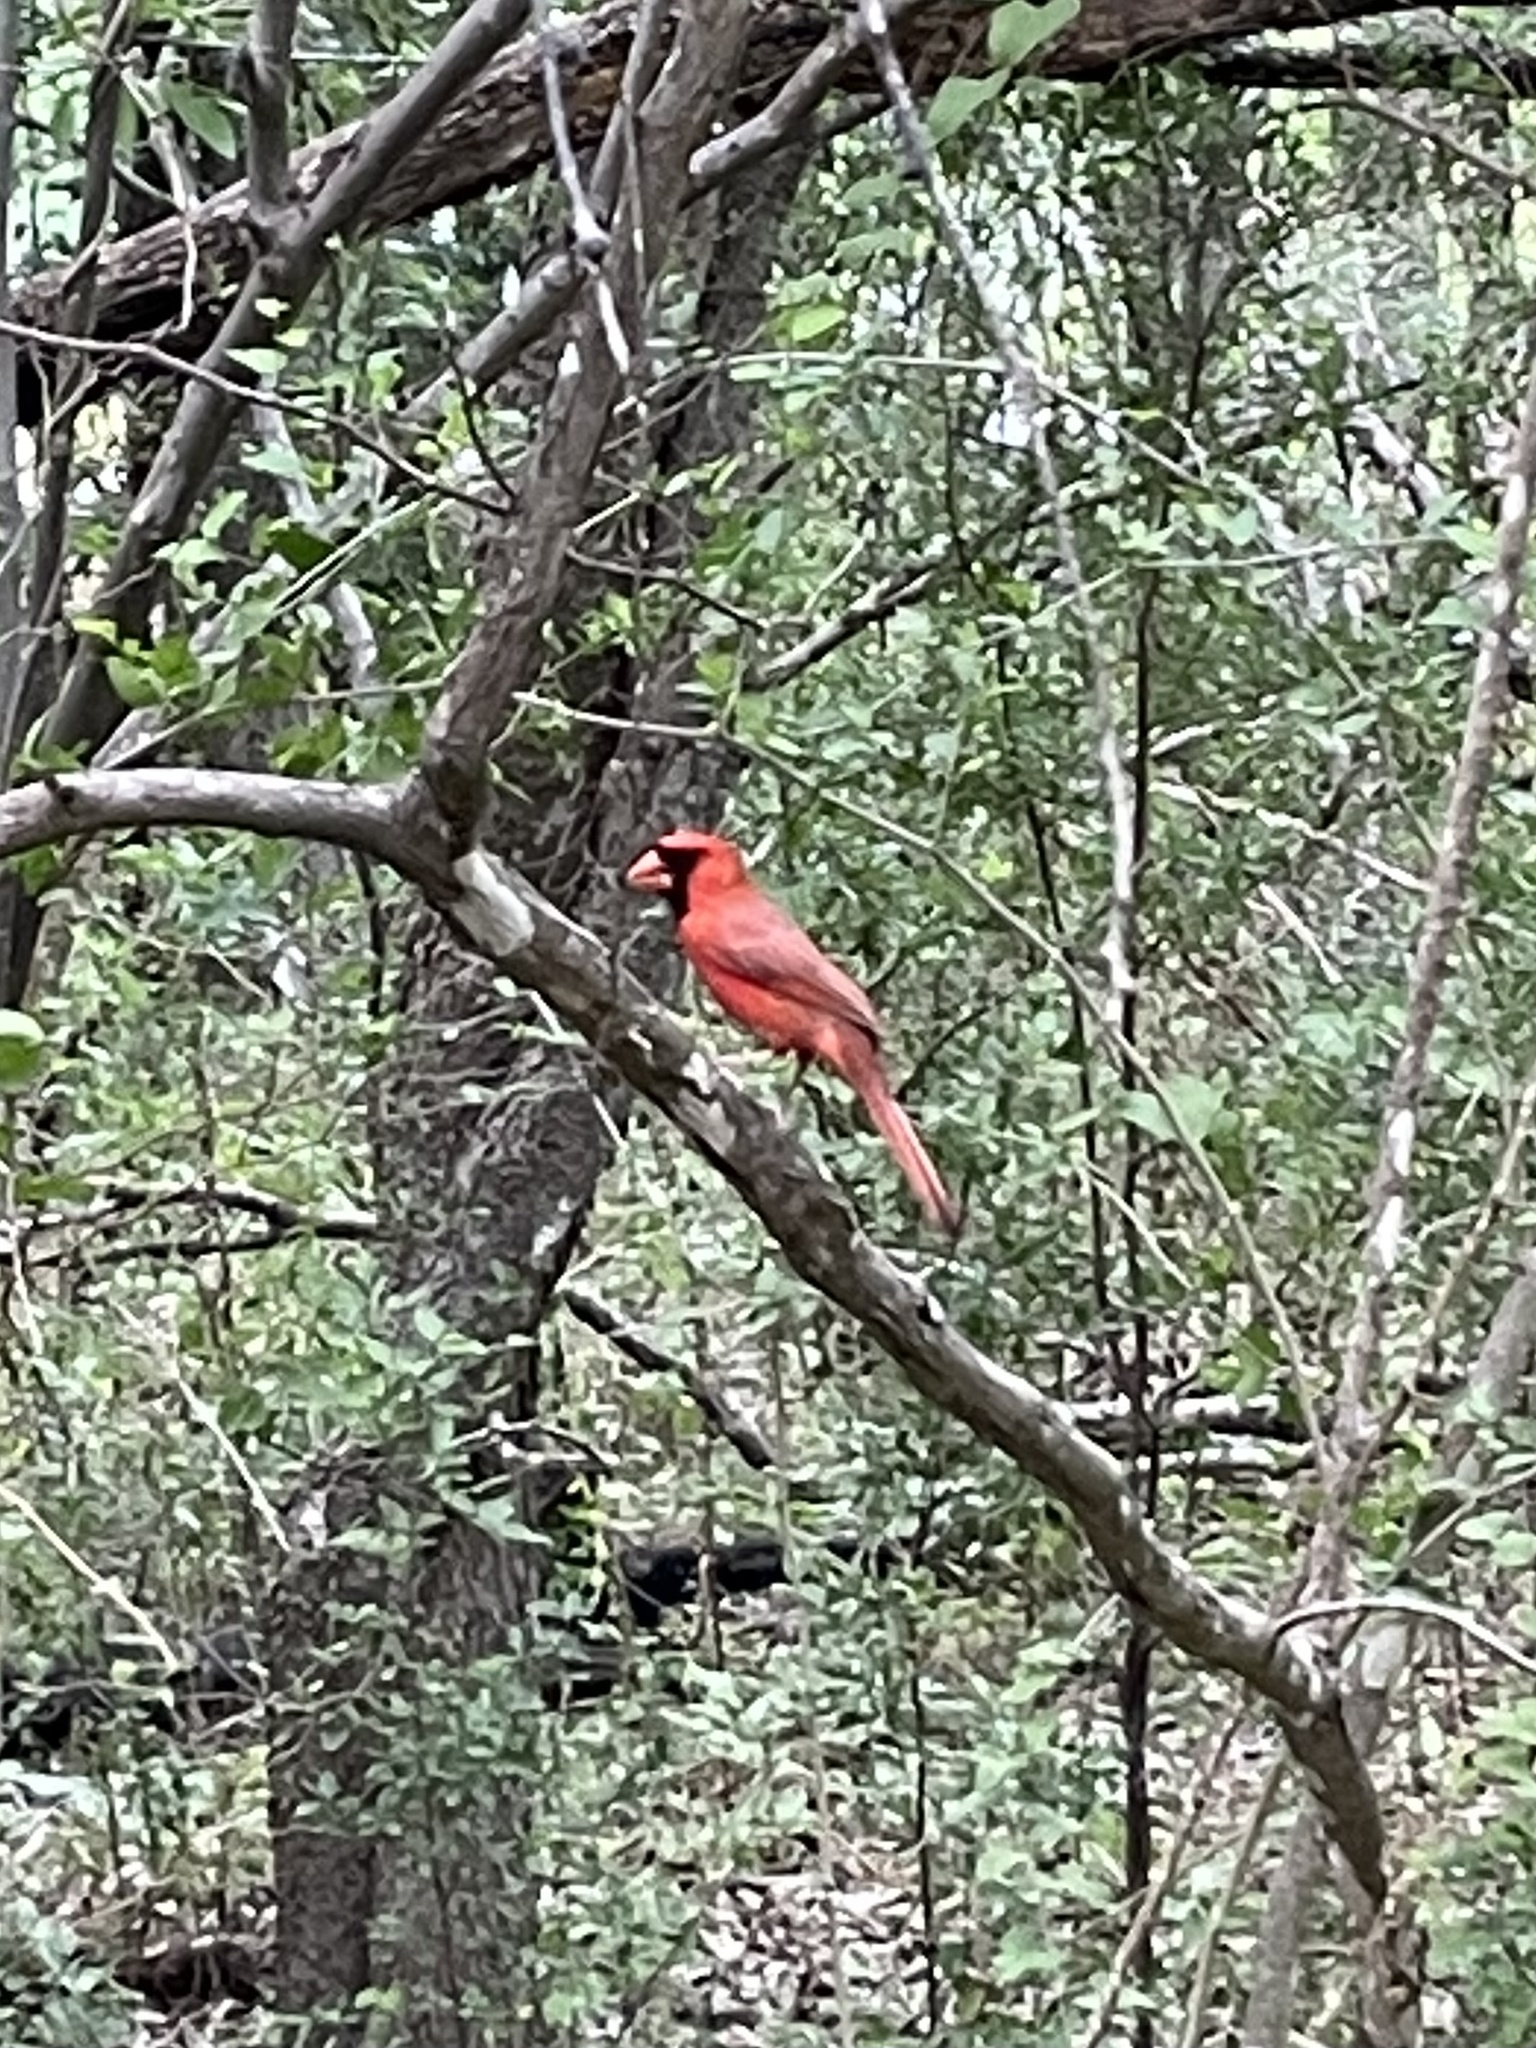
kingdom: Animalia
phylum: Chordata
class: Aves
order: Passeriformes
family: Cardinalidae
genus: Cardinalis
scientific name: Cardinalis cardinalis
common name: Northern cardinal
